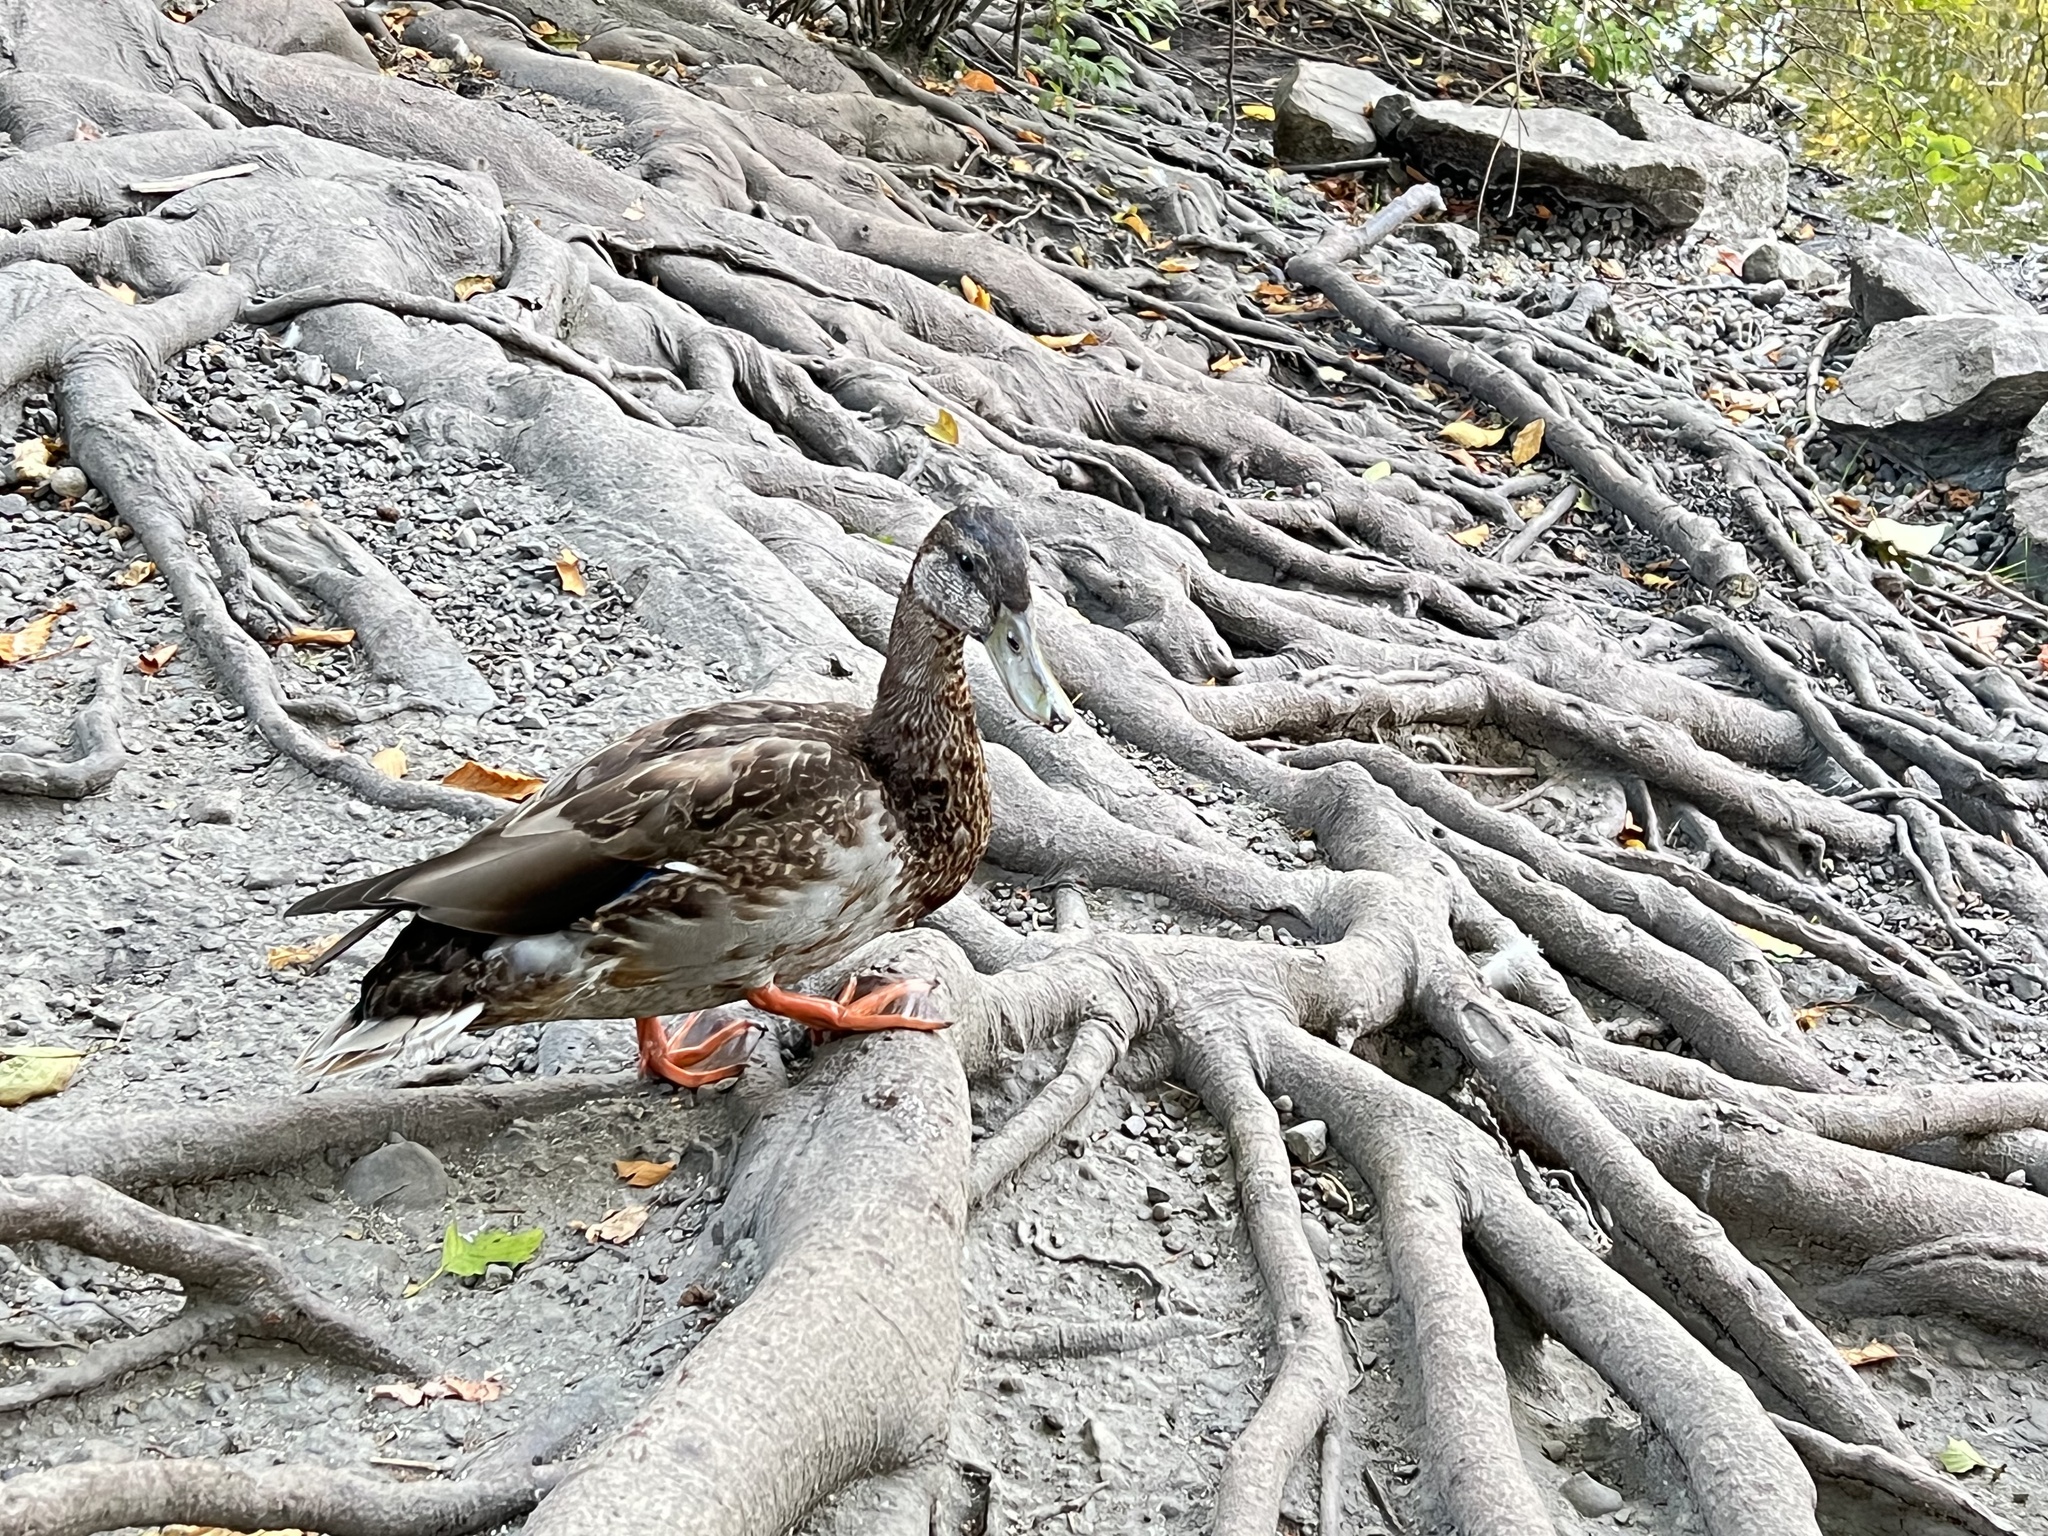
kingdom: Animalia
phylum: Chordata
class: Aves
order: Anseriformes
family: Anatidae
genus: Anas
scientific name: Anas platyrhynchos
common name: Mallard
